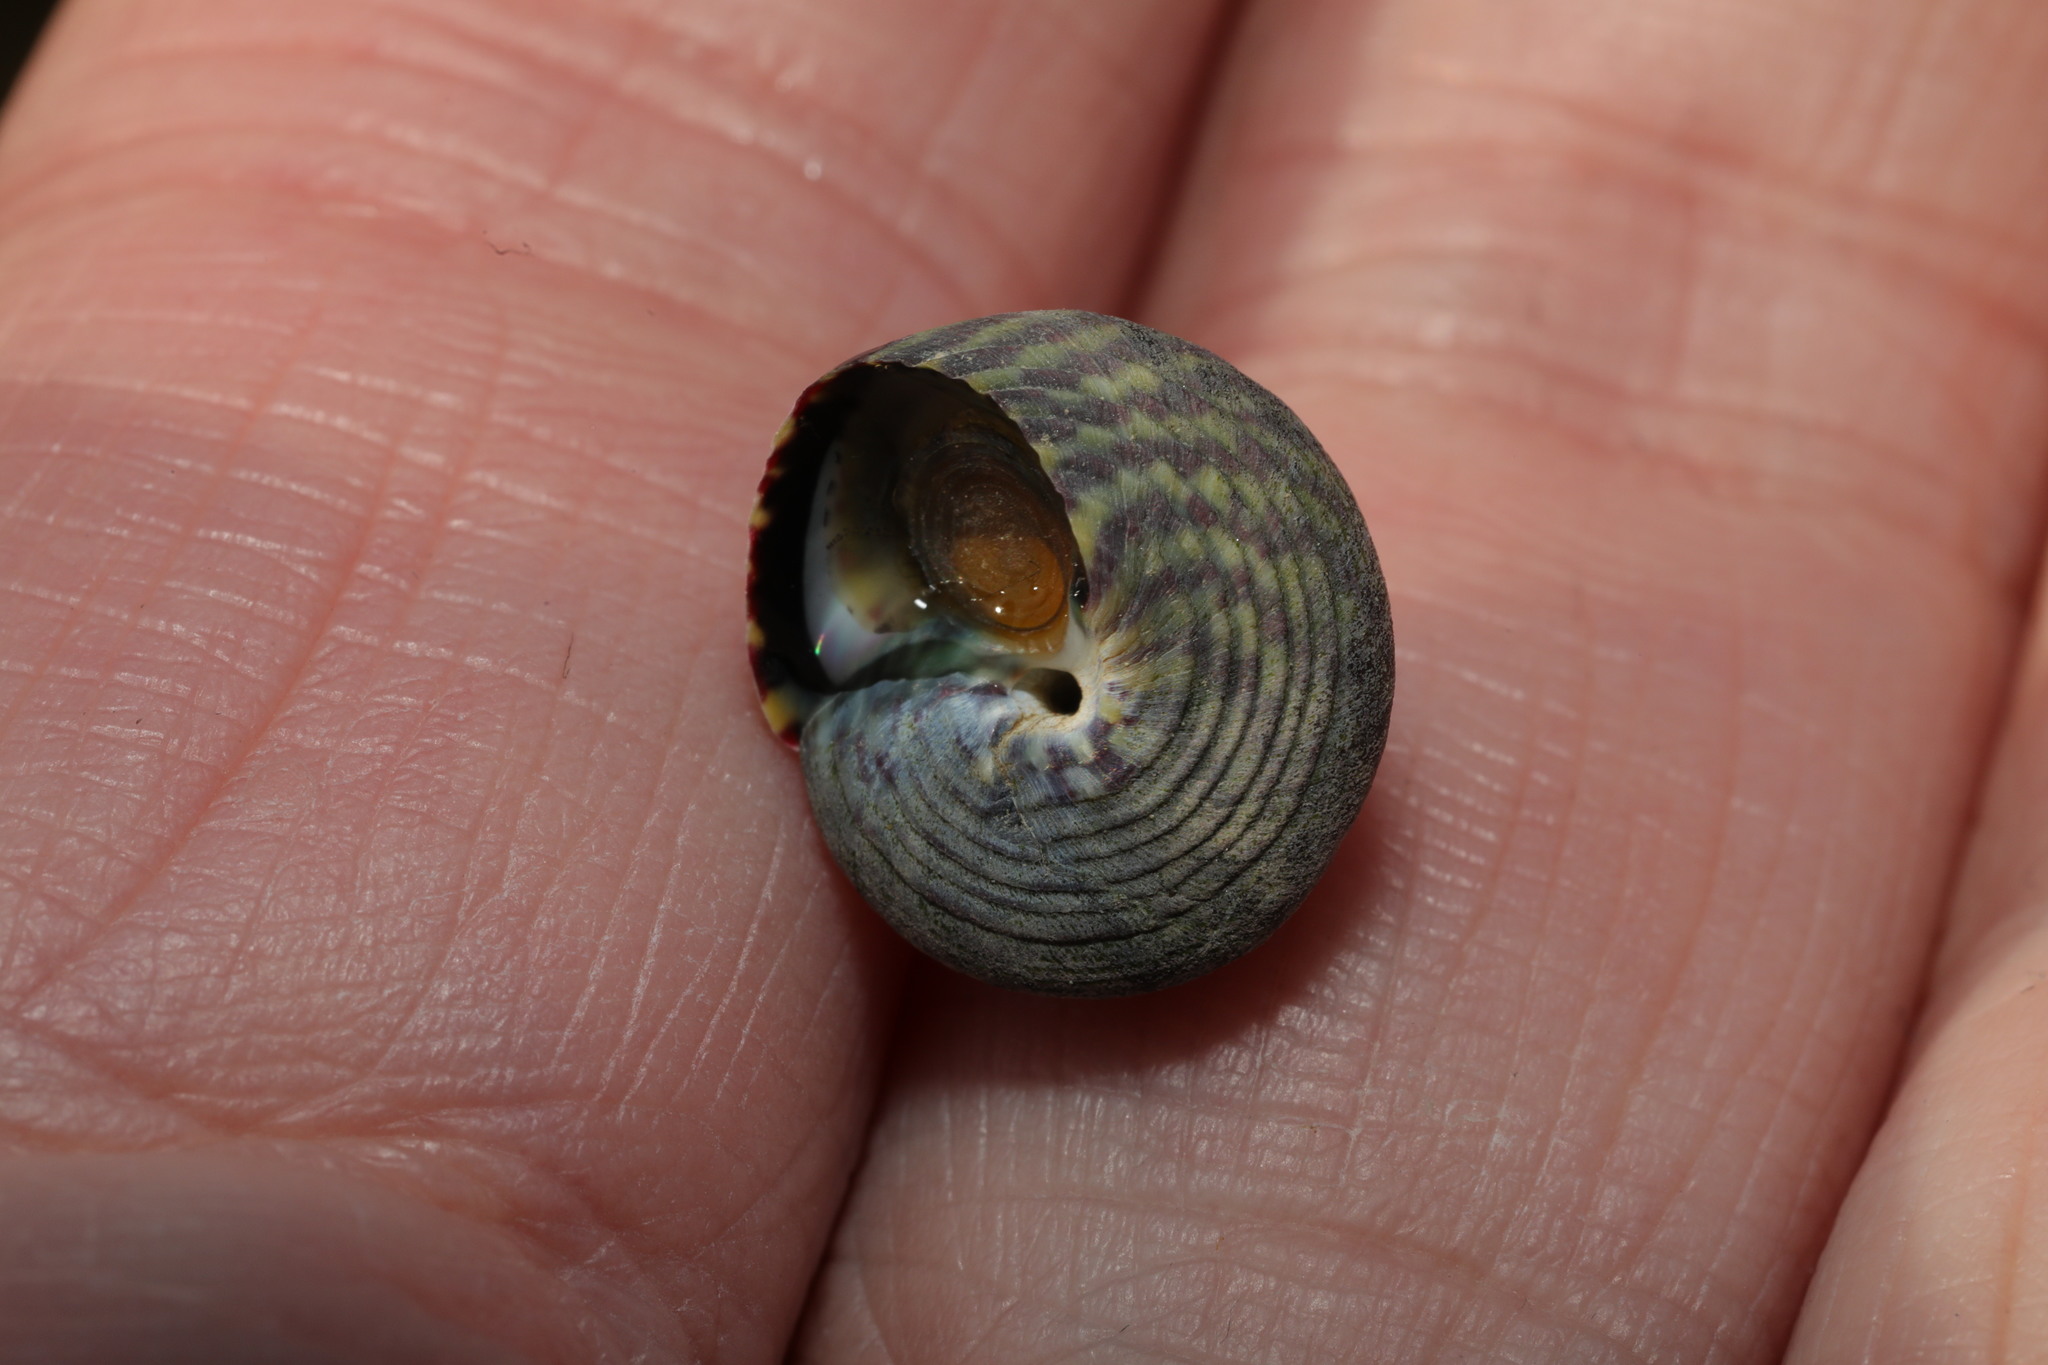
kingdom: Animalia
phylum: Mollusca
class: Gastropoda
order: Trochida
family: Trochidae
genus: Steromphala
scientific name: Steromphala umbilicalis
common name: Flat top shell
